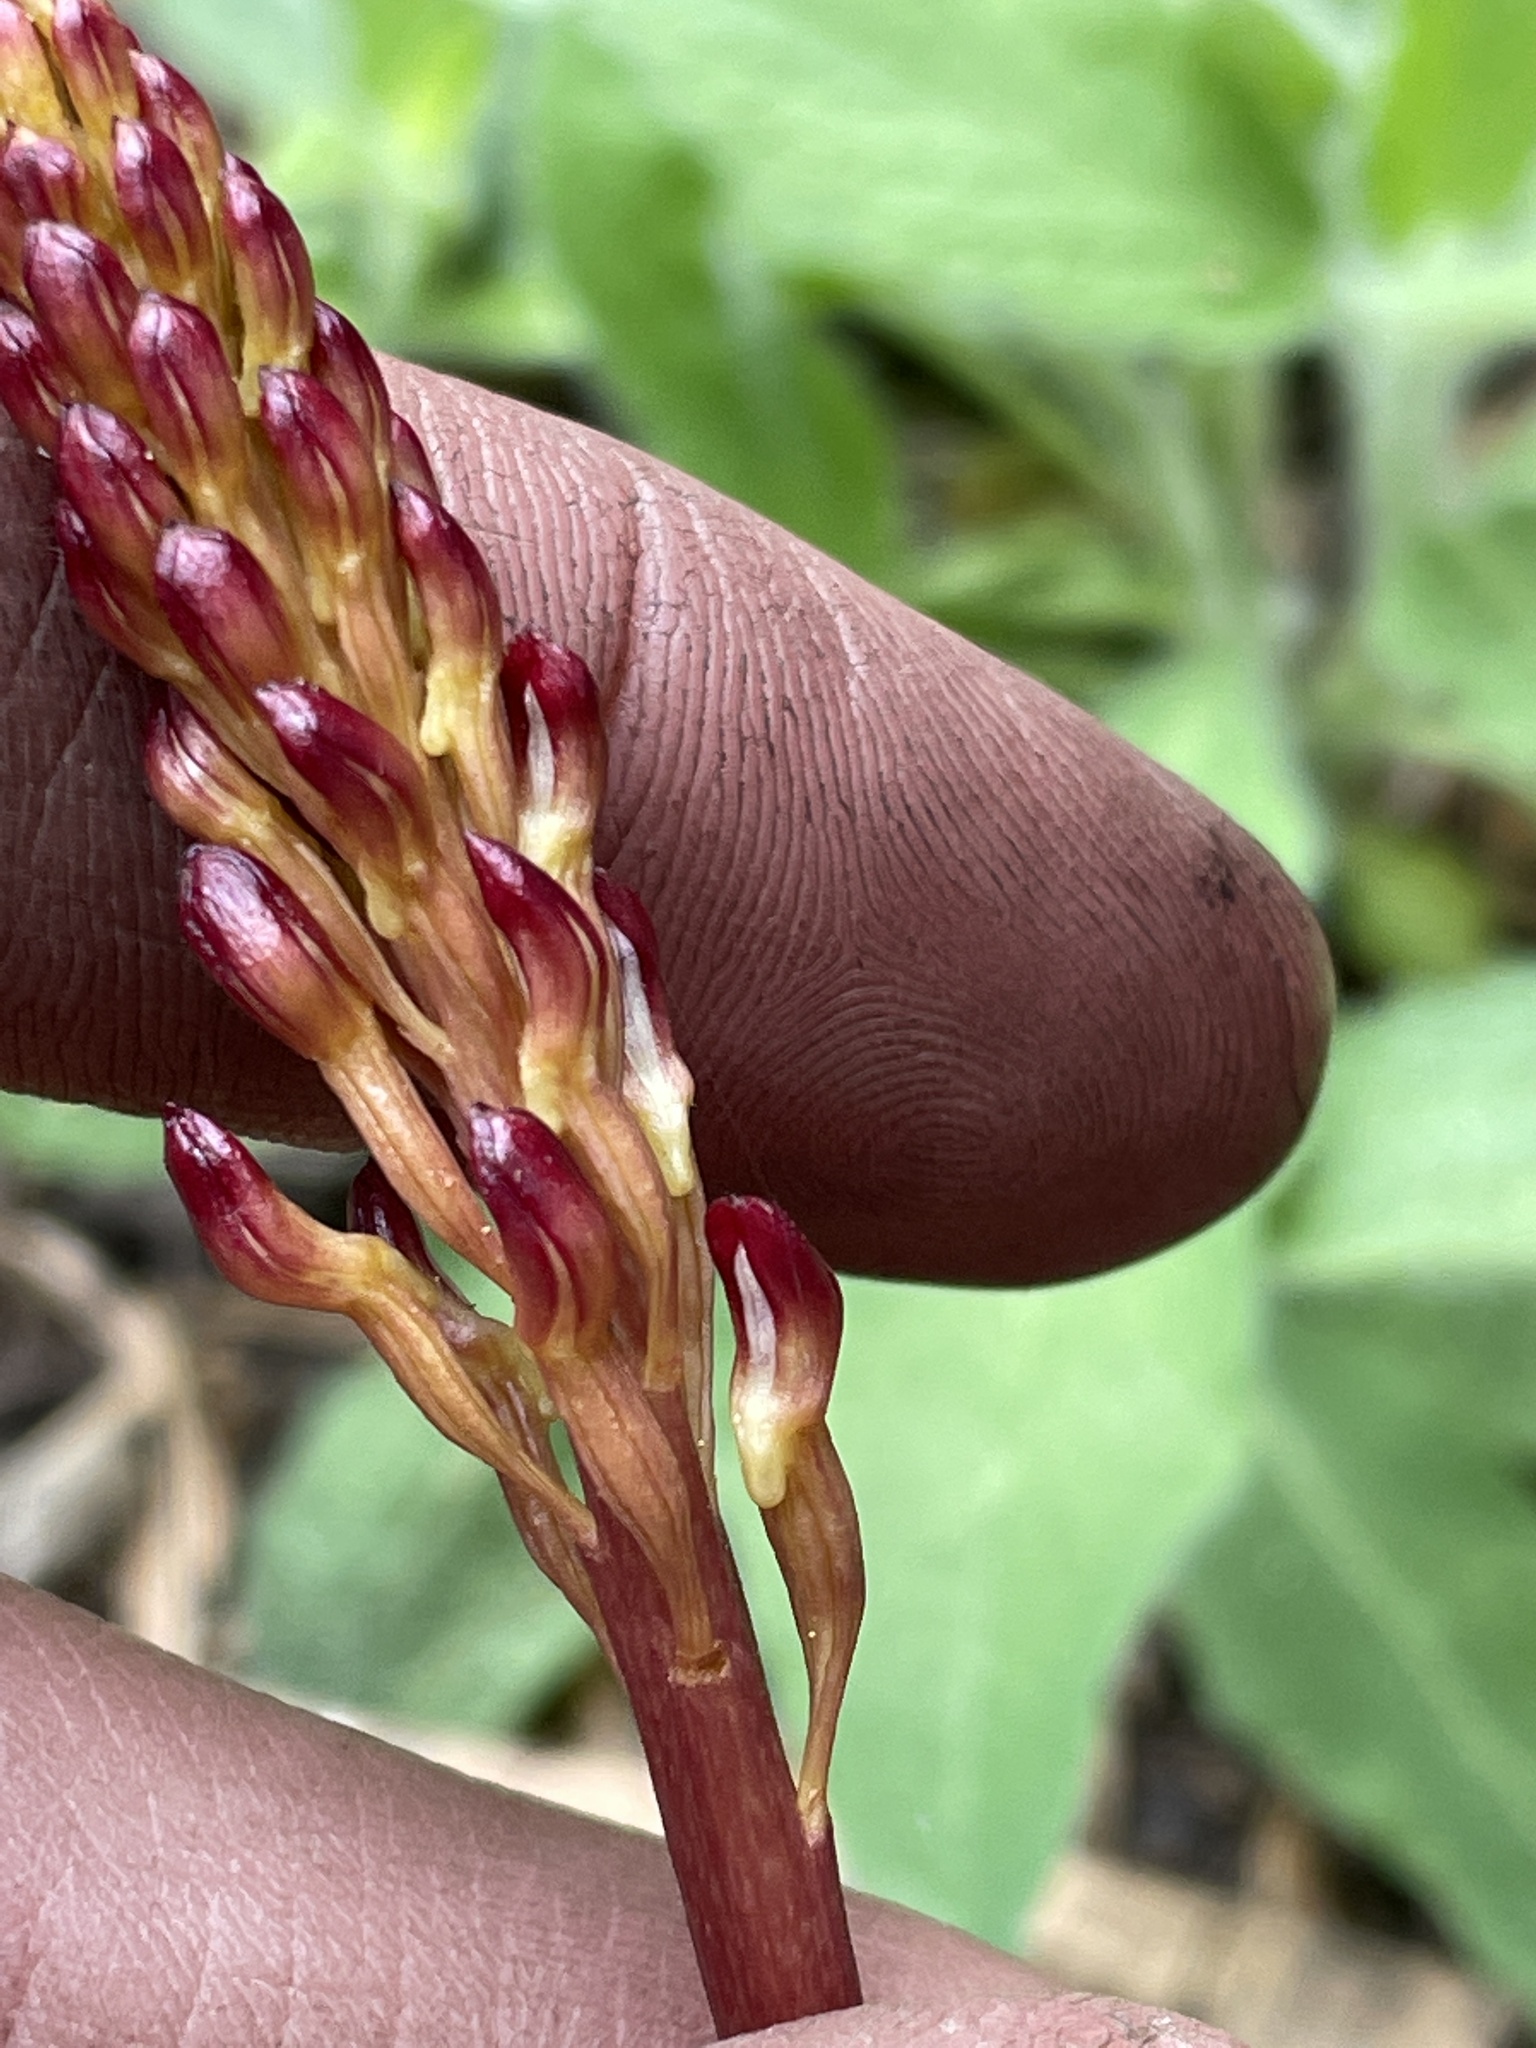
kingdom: Plantae
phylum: Tracheophyta
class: Liliopsida
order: Asparagales
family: Orchidaceae
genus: Corallorhiza
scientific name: Corallorhiza maculata
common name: Spotted coralroot
